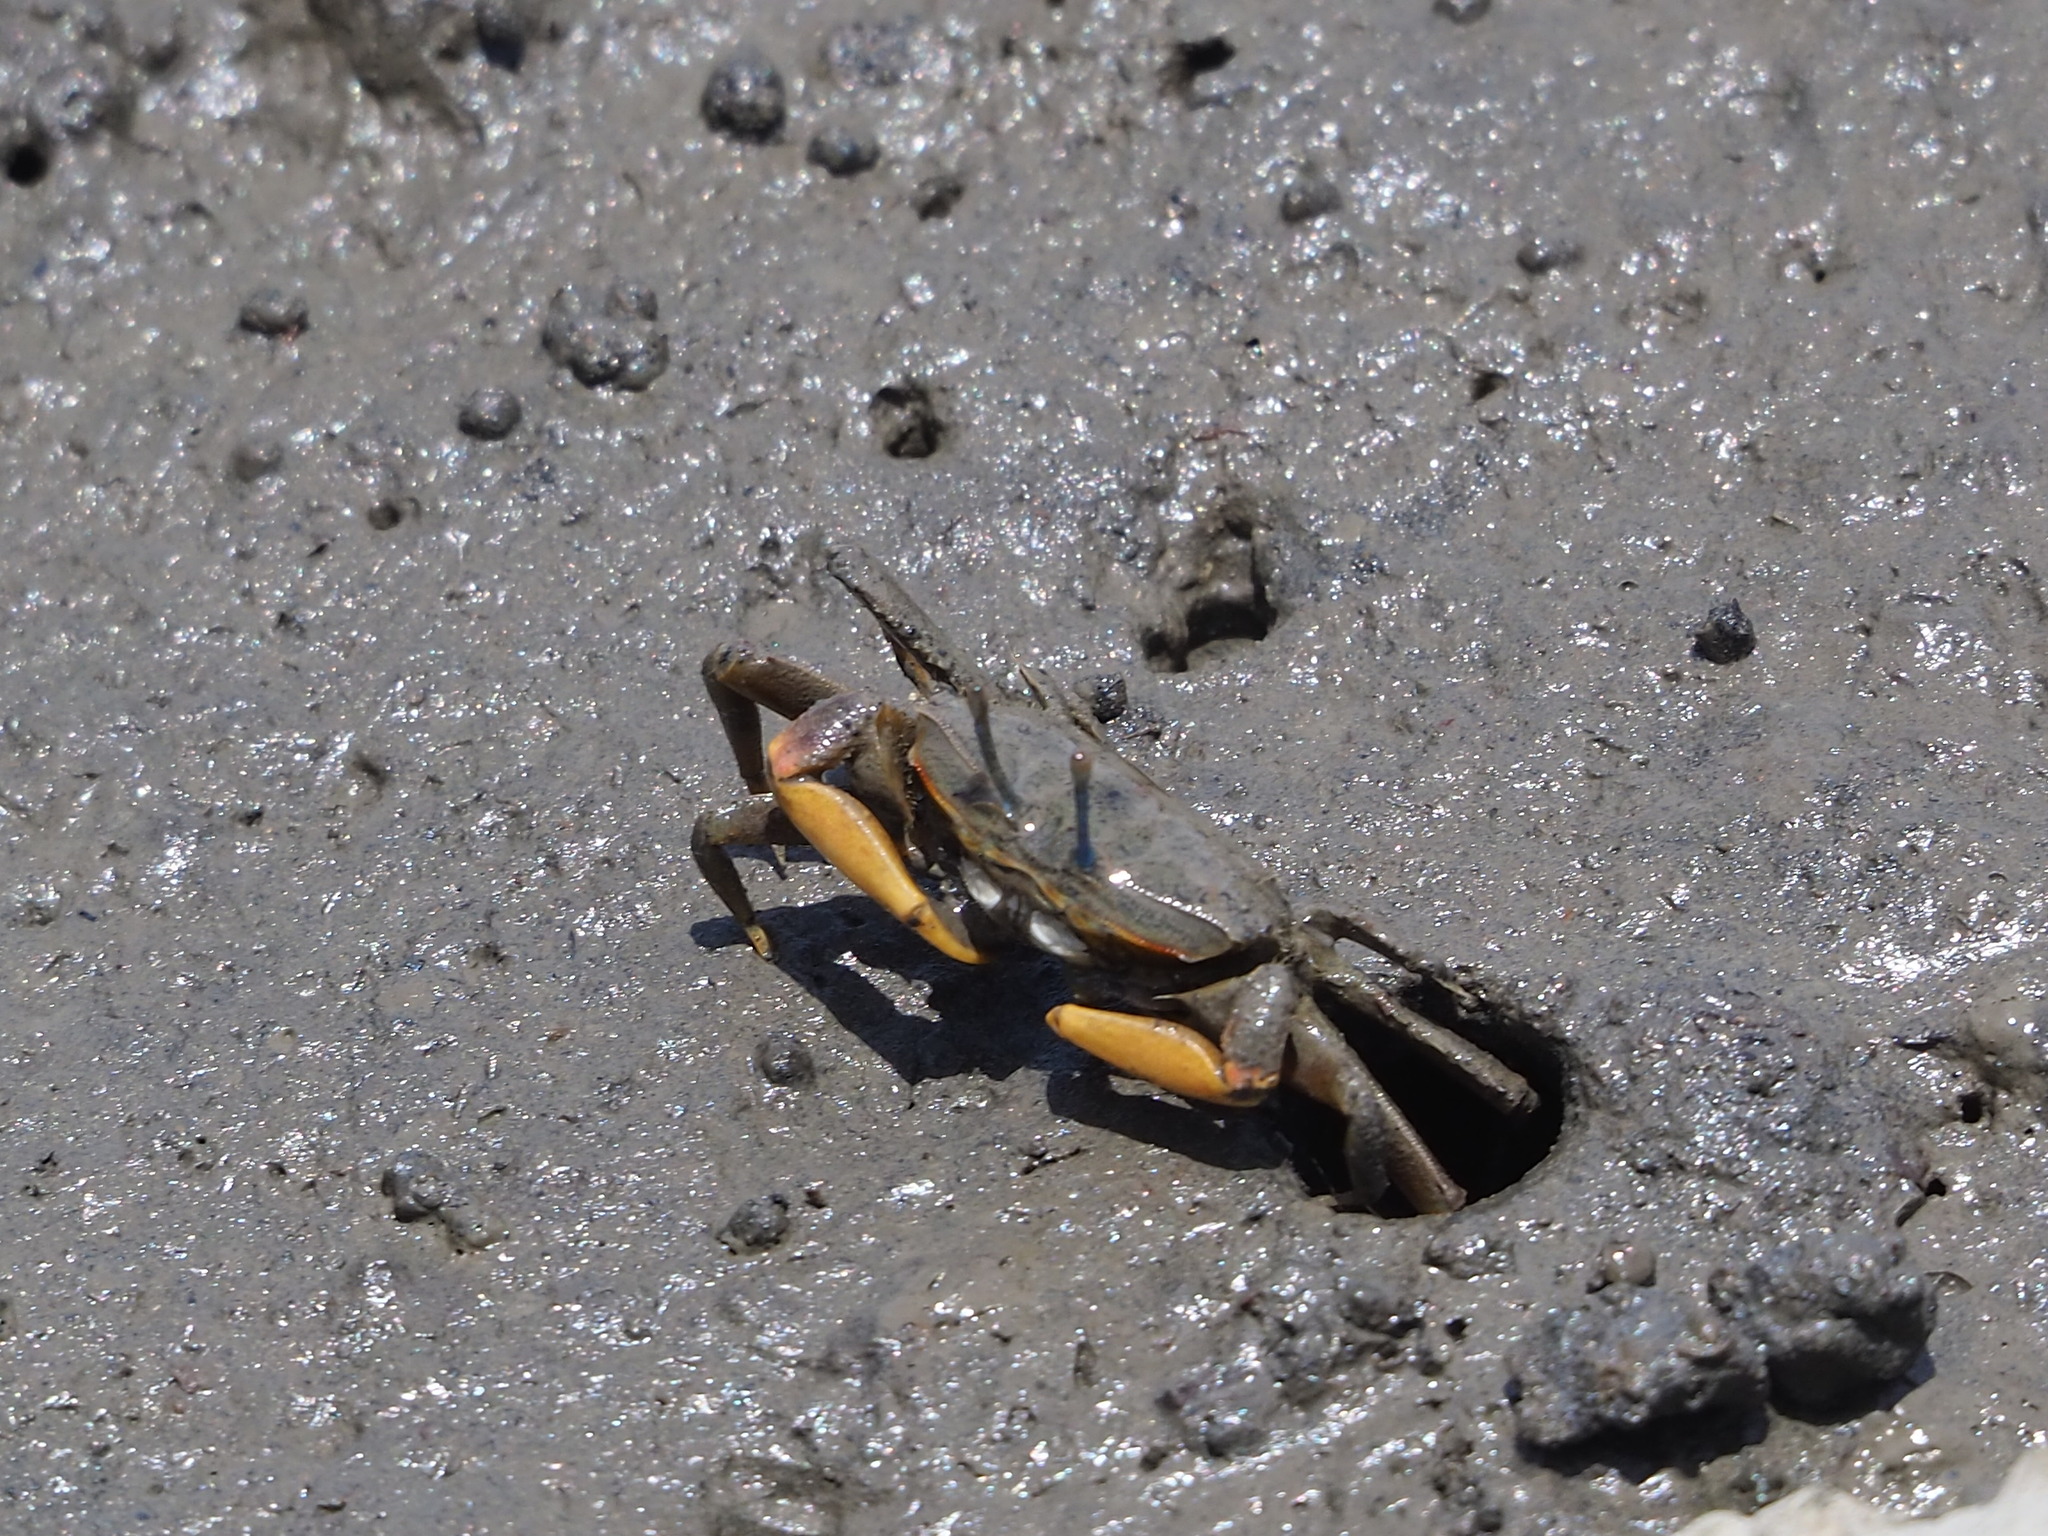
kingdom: Animalia
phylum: Arthropoda
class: Malacostraca
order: Decapoda
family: Macrophthalmidae
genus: Macrophthalmus
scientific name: Macrophthalmus banzai
